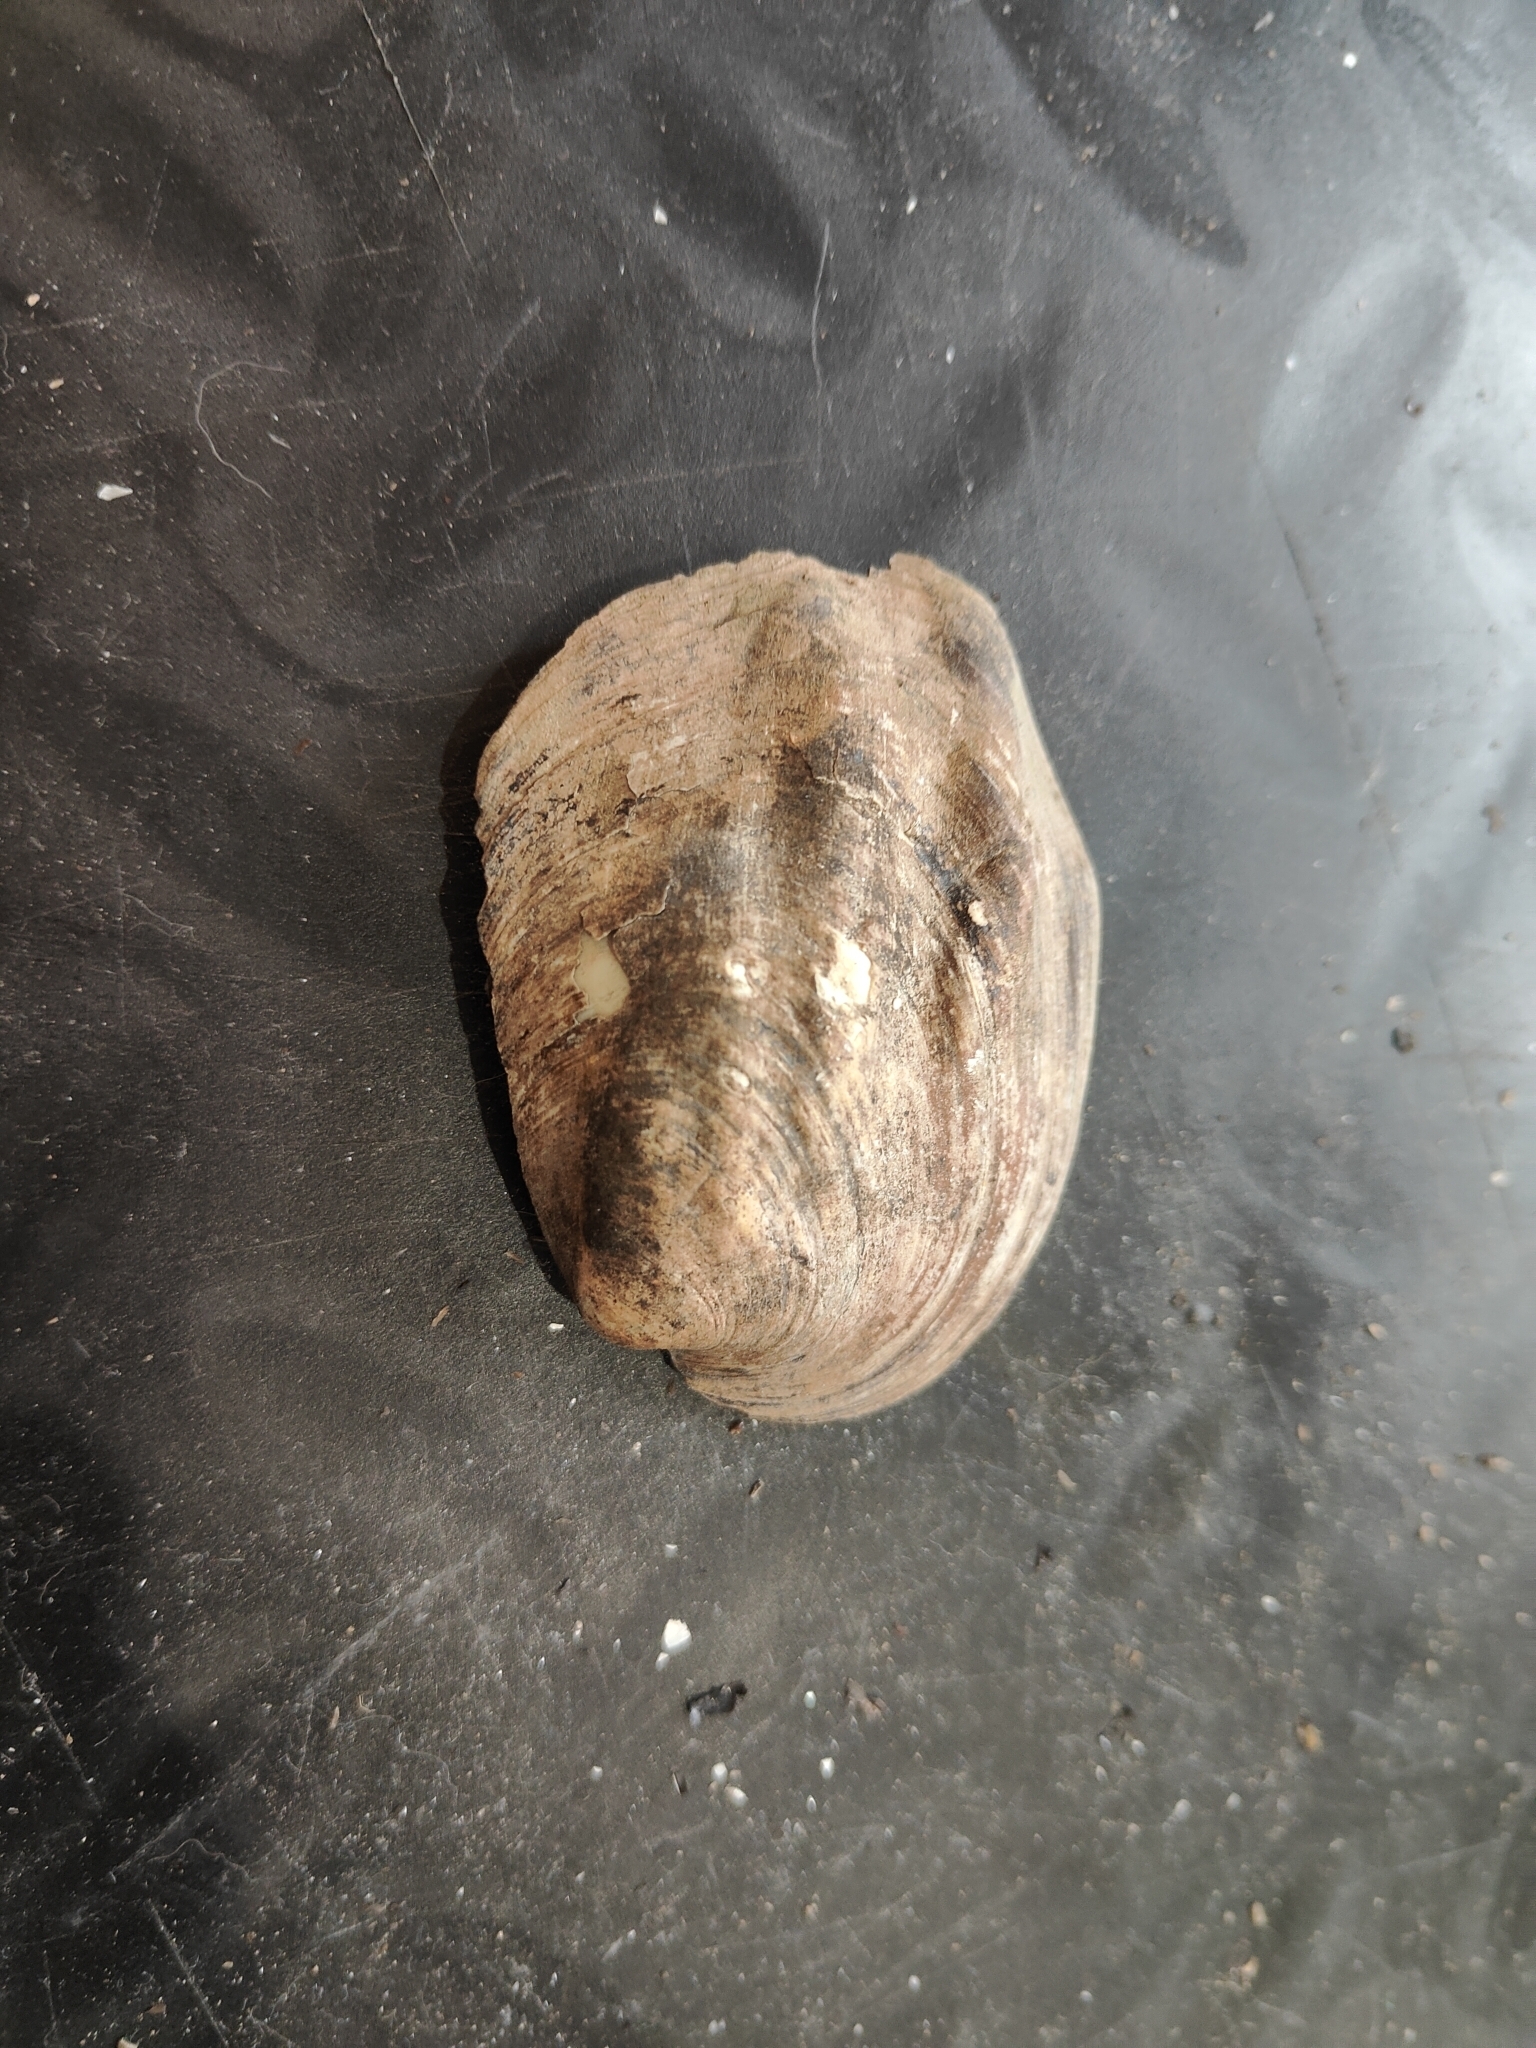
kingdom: Animalia
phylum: Mollusca
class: Bivalvia
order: Unionida
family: Unionidae
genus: Amblema
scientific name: Amblema plicata
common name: Threeridge
